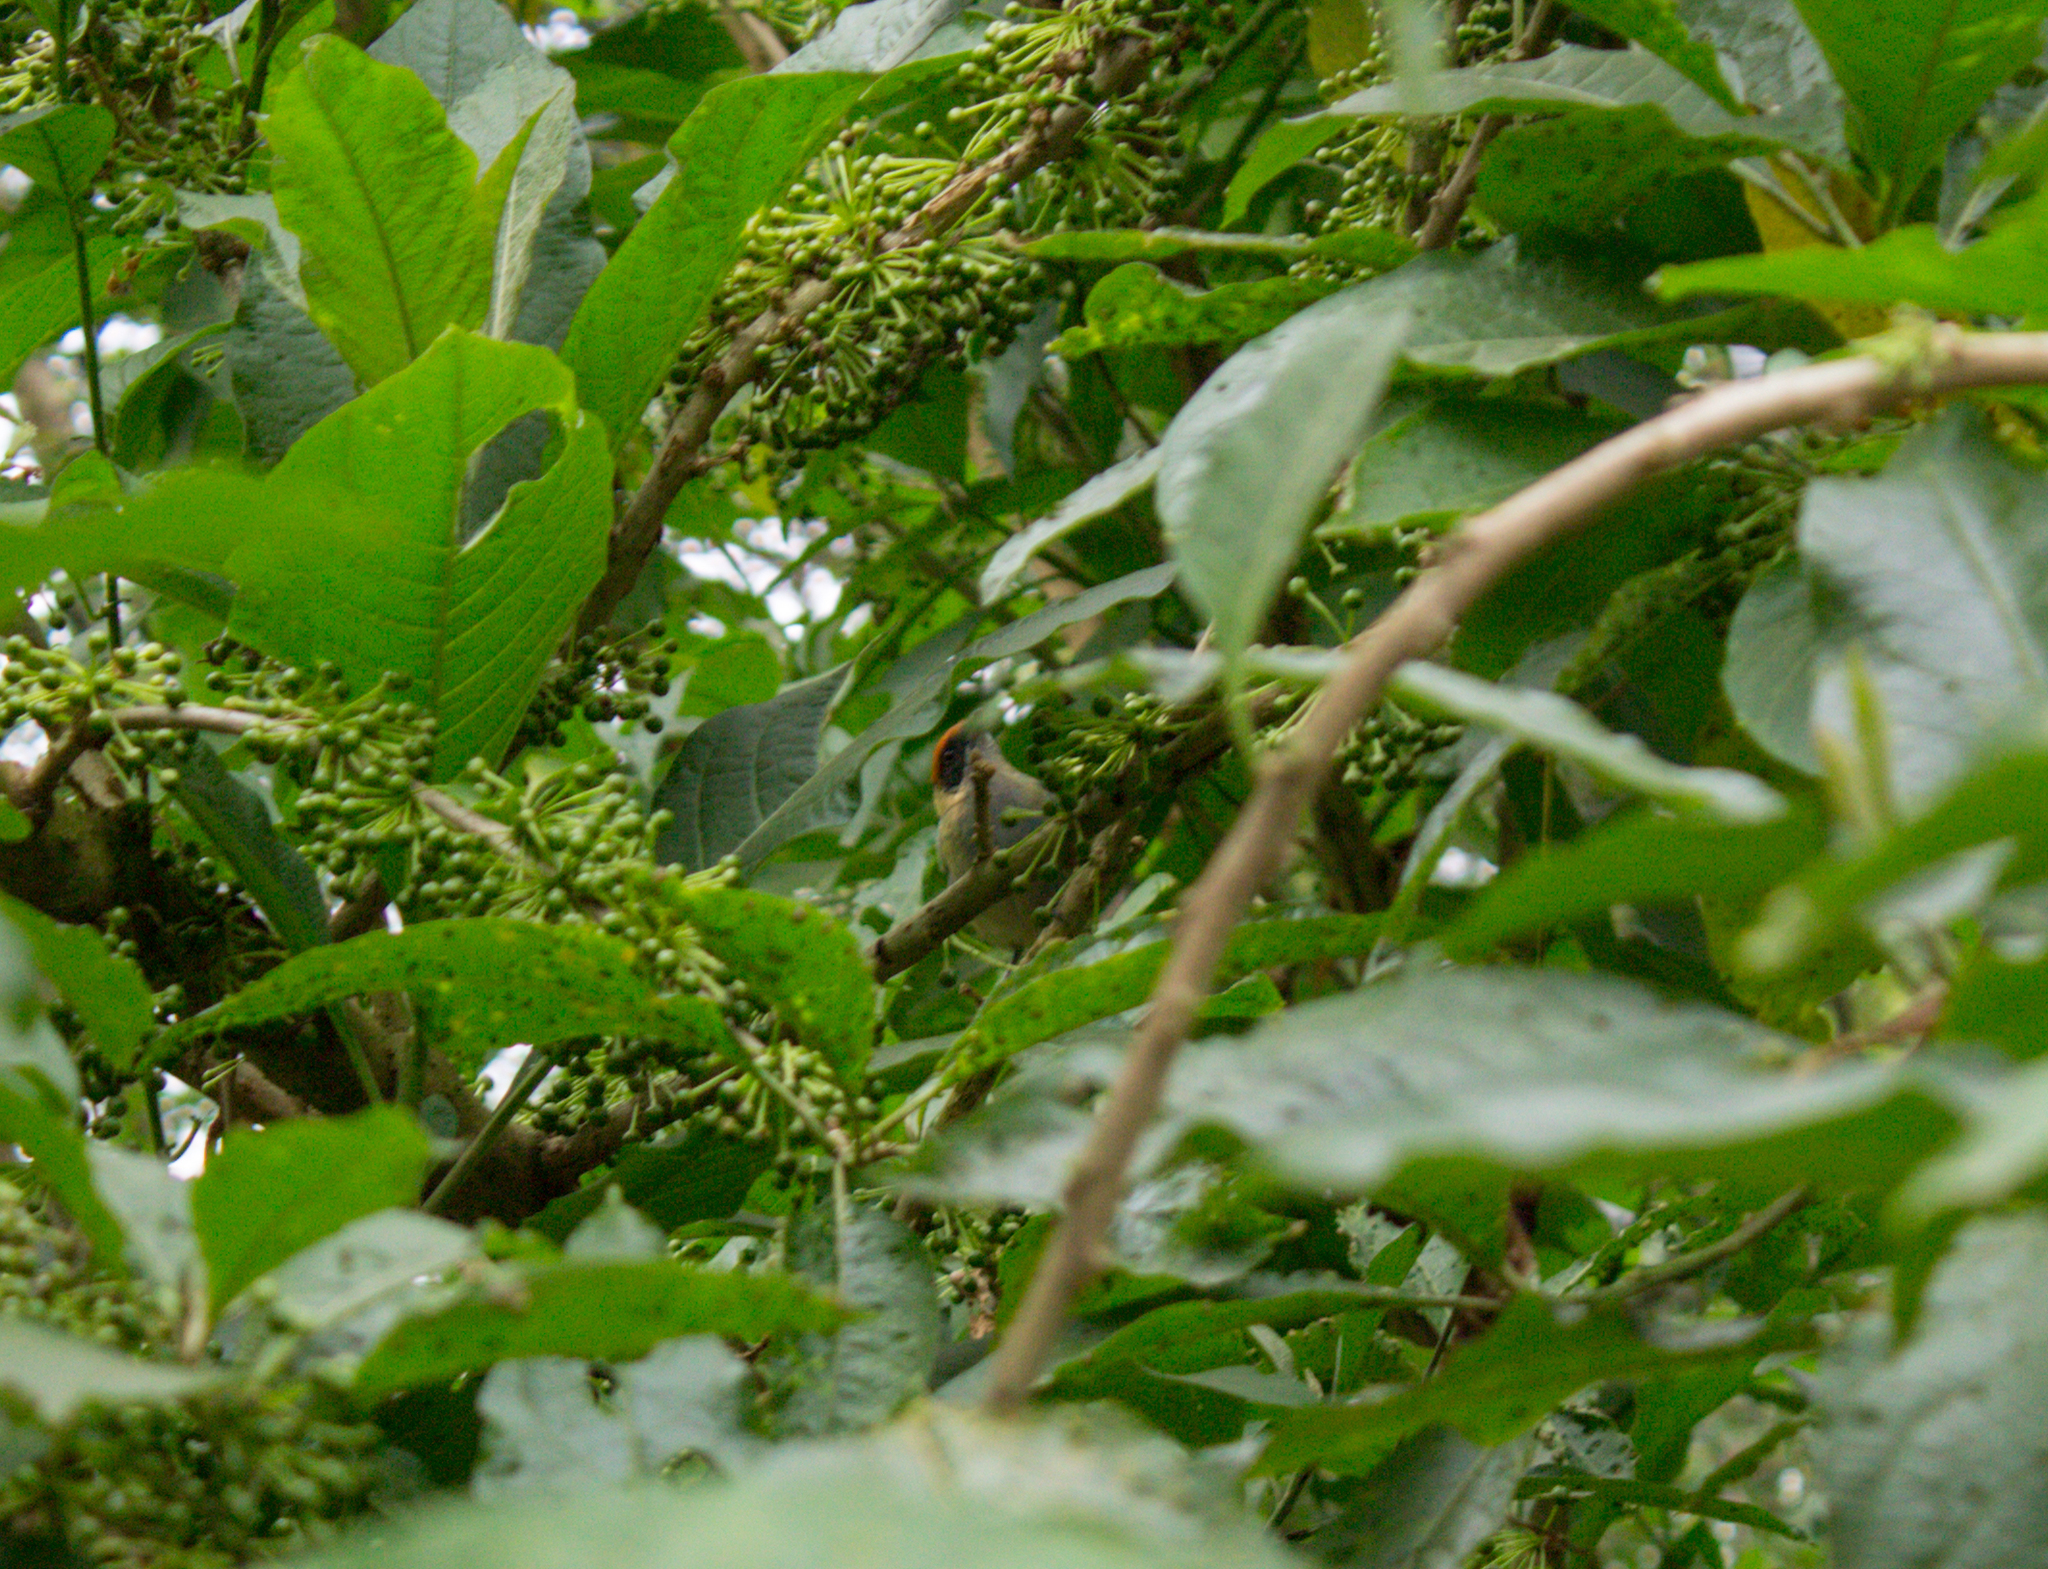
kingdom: Animalia
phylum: Chordata
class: Aves
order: Passeriformes
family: Thraupidae
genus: Stilpnia
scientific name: Stilpnia vitriolina
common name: Scrub tanager
